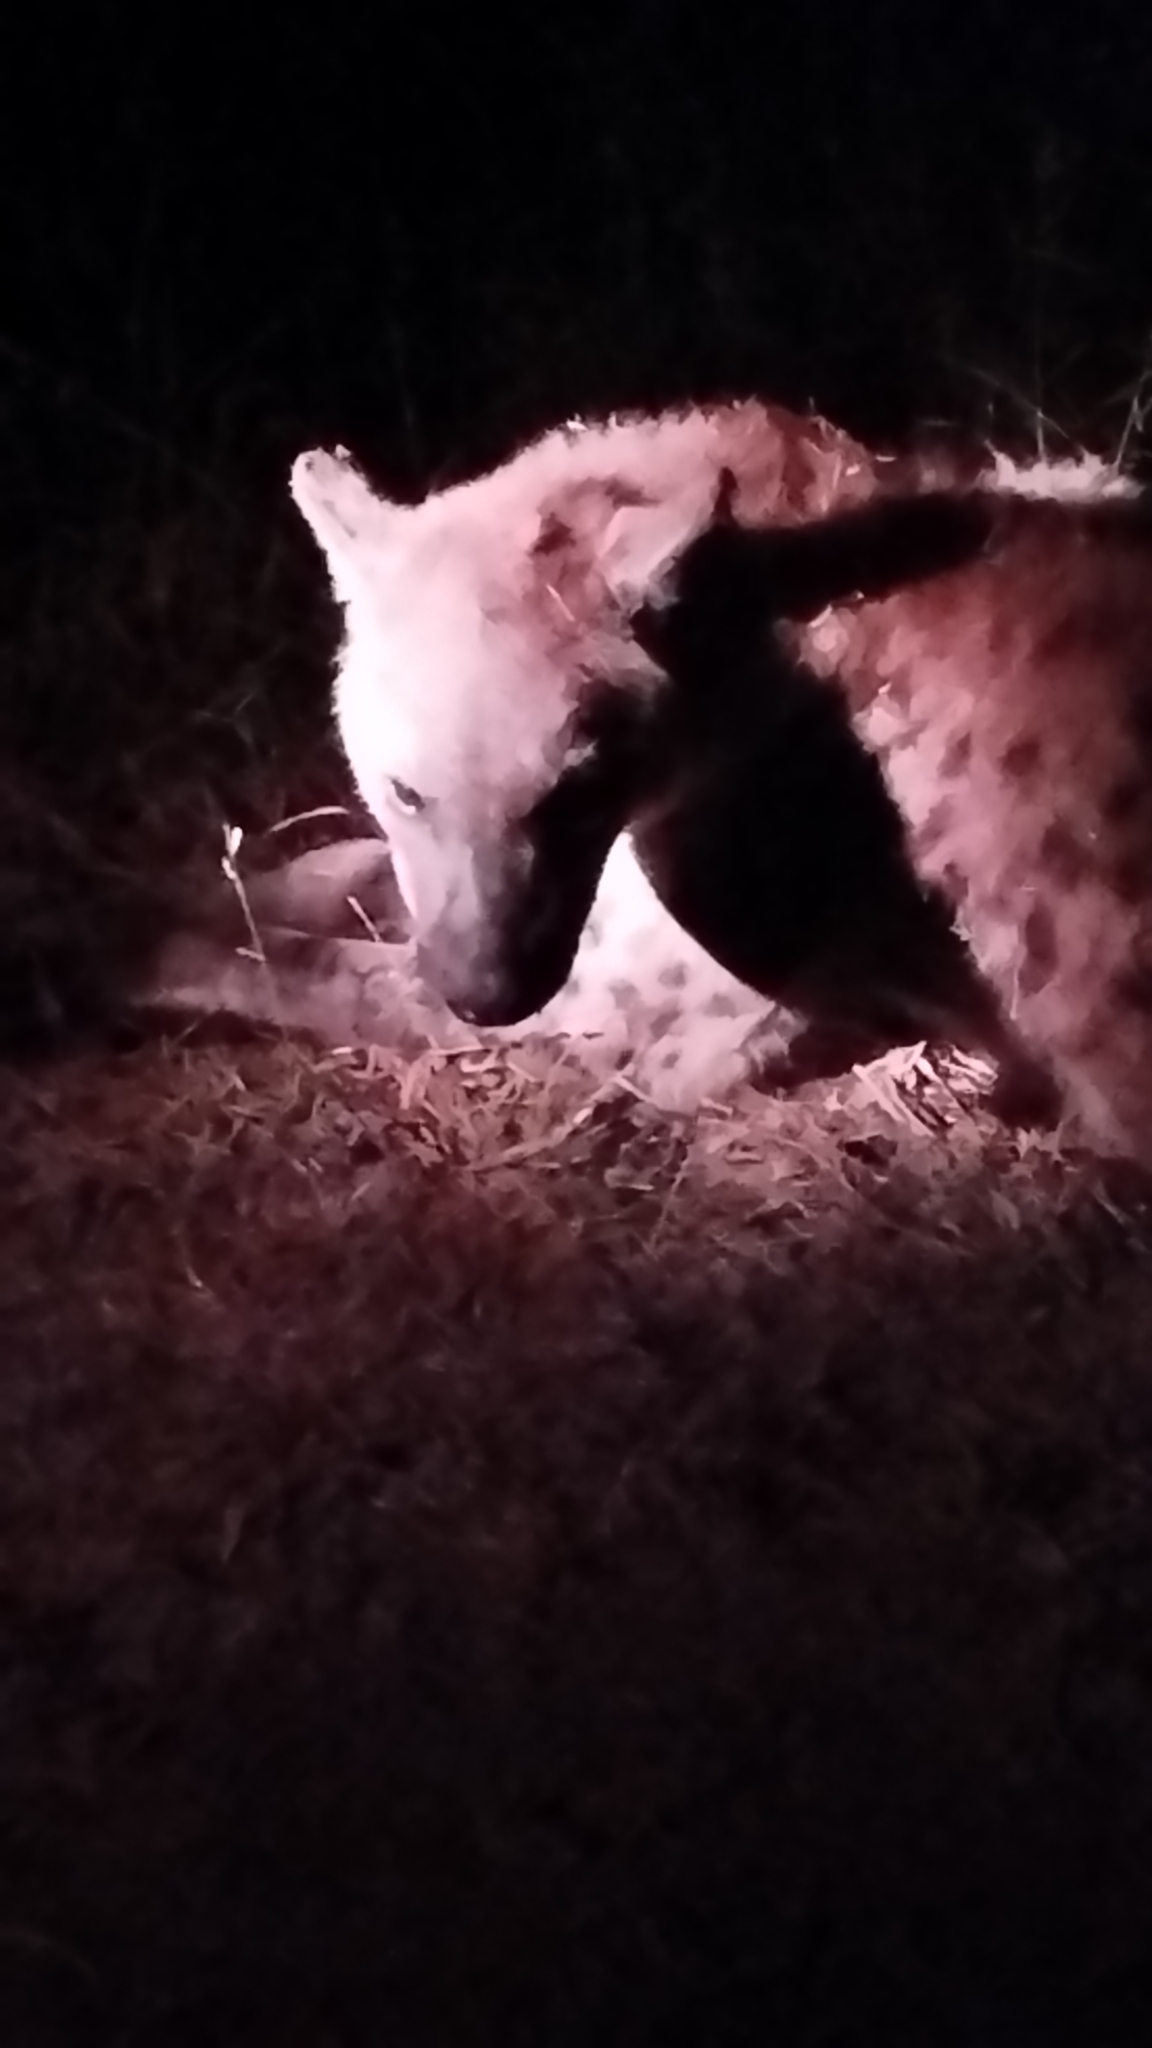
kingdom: Animalia
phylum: Chordata
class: Mammalia
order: Carnivora
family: Hyaenidae
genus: Crocuta
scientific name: Crocuta crocuta
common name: Spotted hyaena
